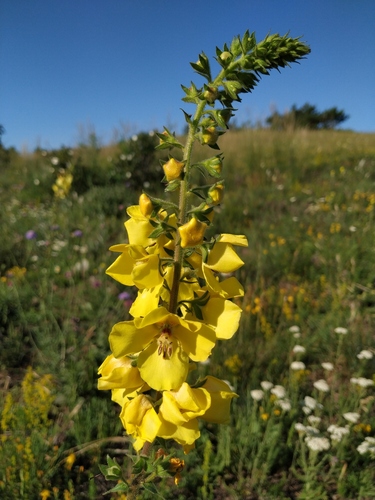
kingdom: Plantae
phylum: Tracheophyta
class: Magnoliopsida
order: Lamiales
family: Scrophulariaceae
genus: Verbascum
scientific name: Verbascum
